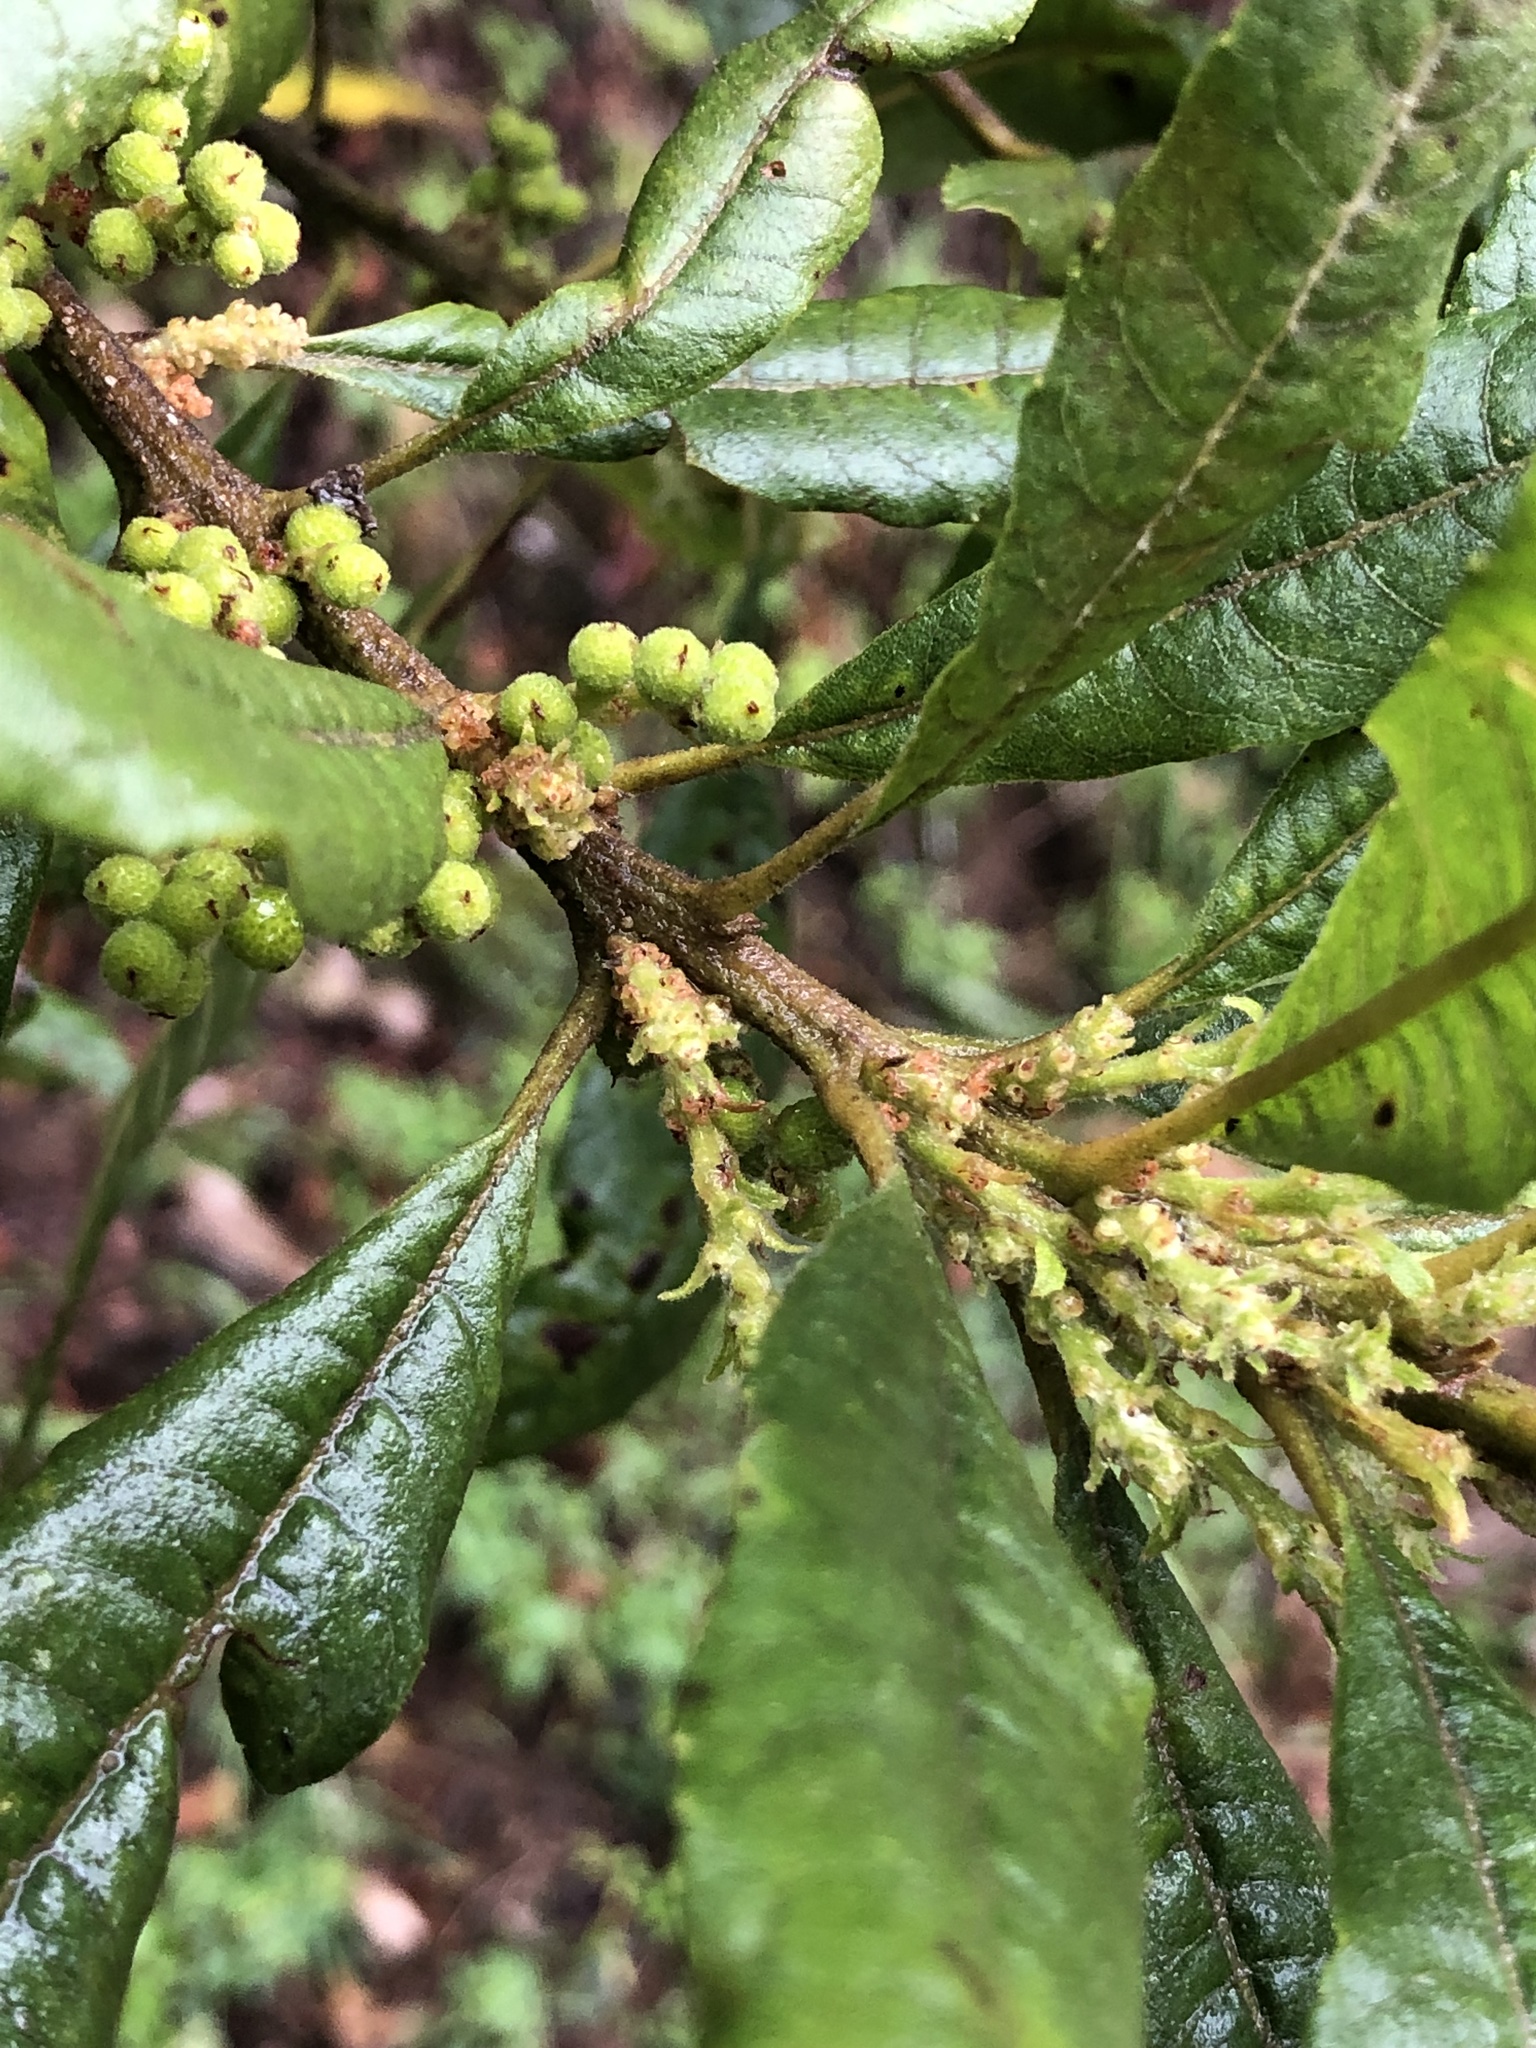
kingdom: Plantae
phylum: Tracheophyta
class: Magnoliopsida
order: Fagales
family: Myricaceae
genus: Morella
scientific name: Morella pubescens
